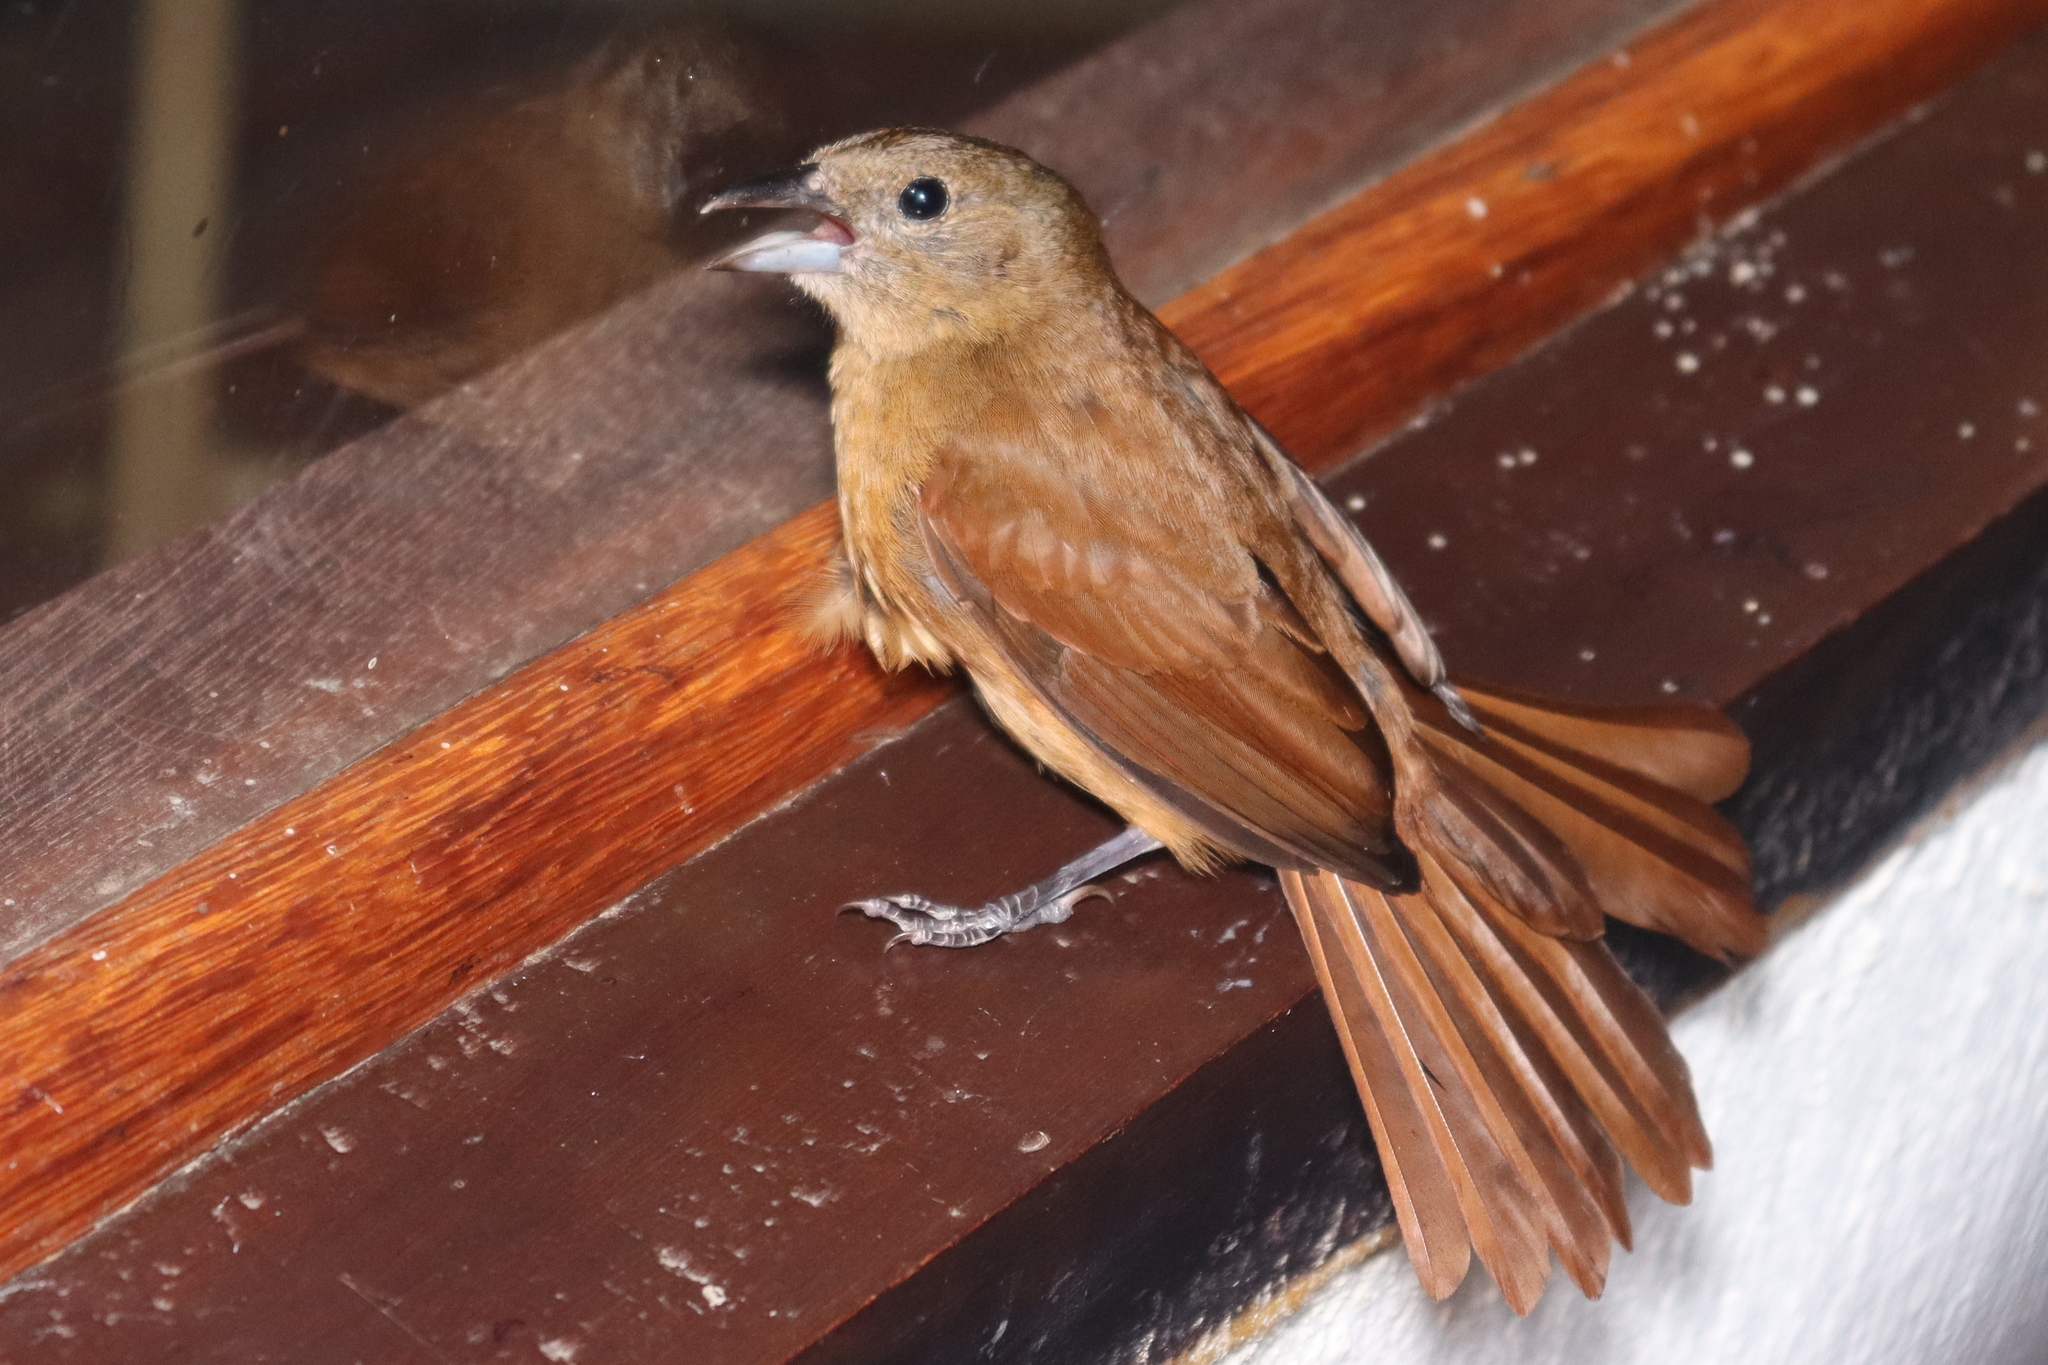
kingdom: Animalia
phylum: Chordata
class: Aves
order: Passeriformes
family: Thraupidae
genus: Tachyphonus
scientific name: Tachyphonus coronatus
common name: Ruby-crowned tanager
